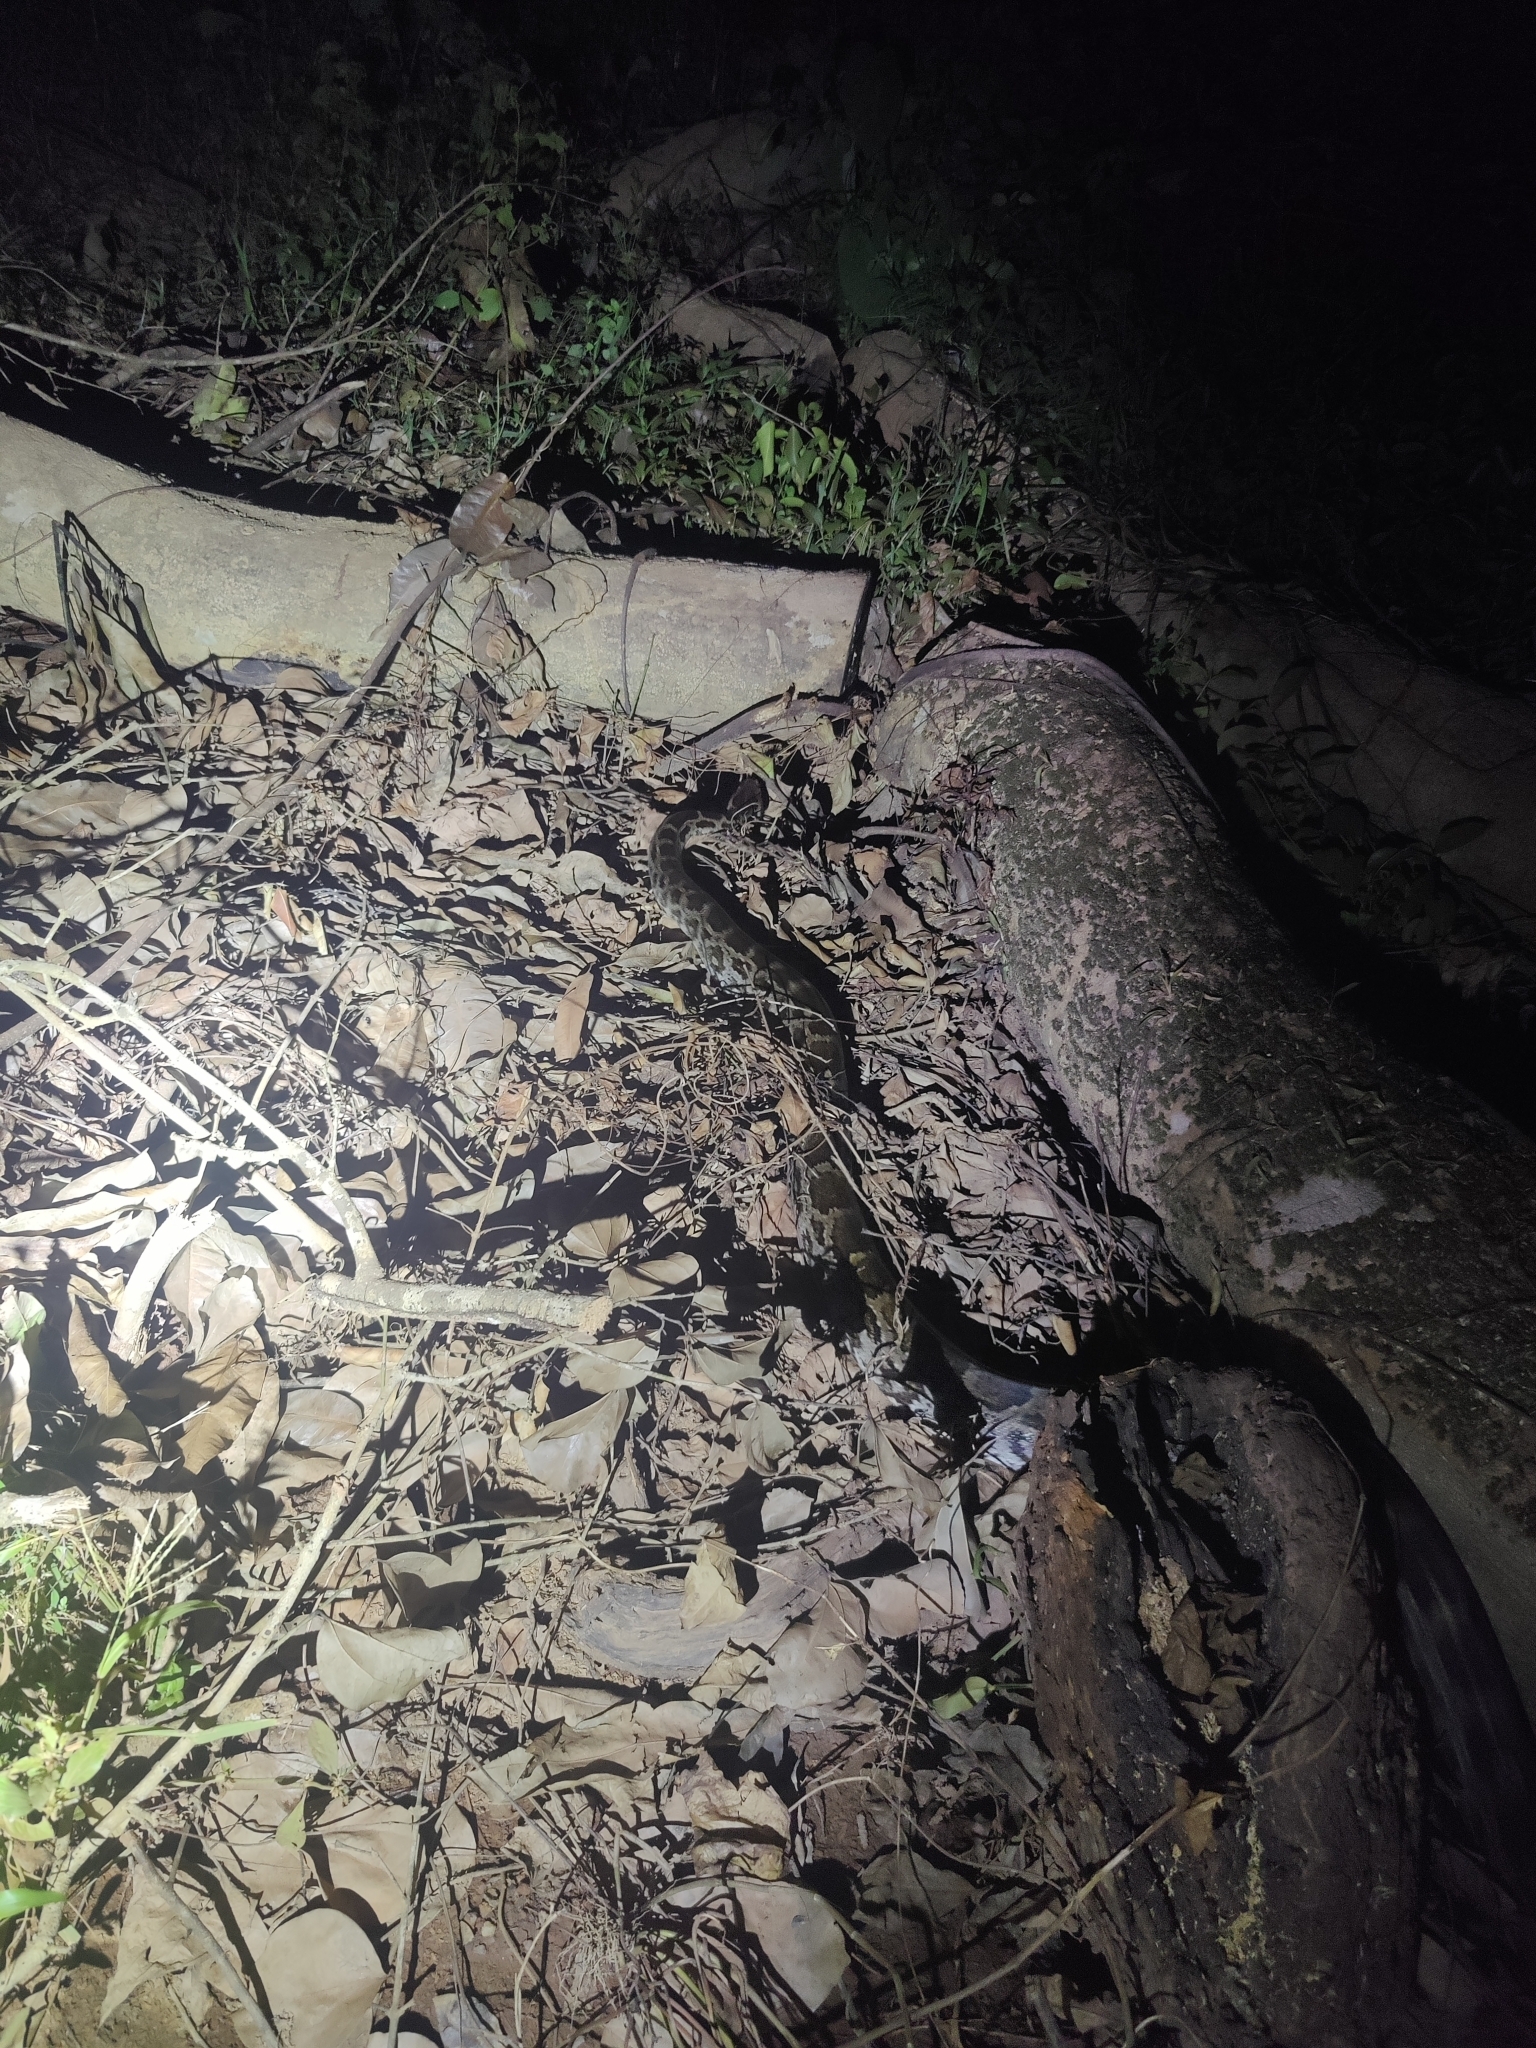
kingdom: Animalia
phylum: Chordata
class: Squamata
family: Pythonidae
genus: Python
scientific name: Python molurus
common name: Indian rock python
